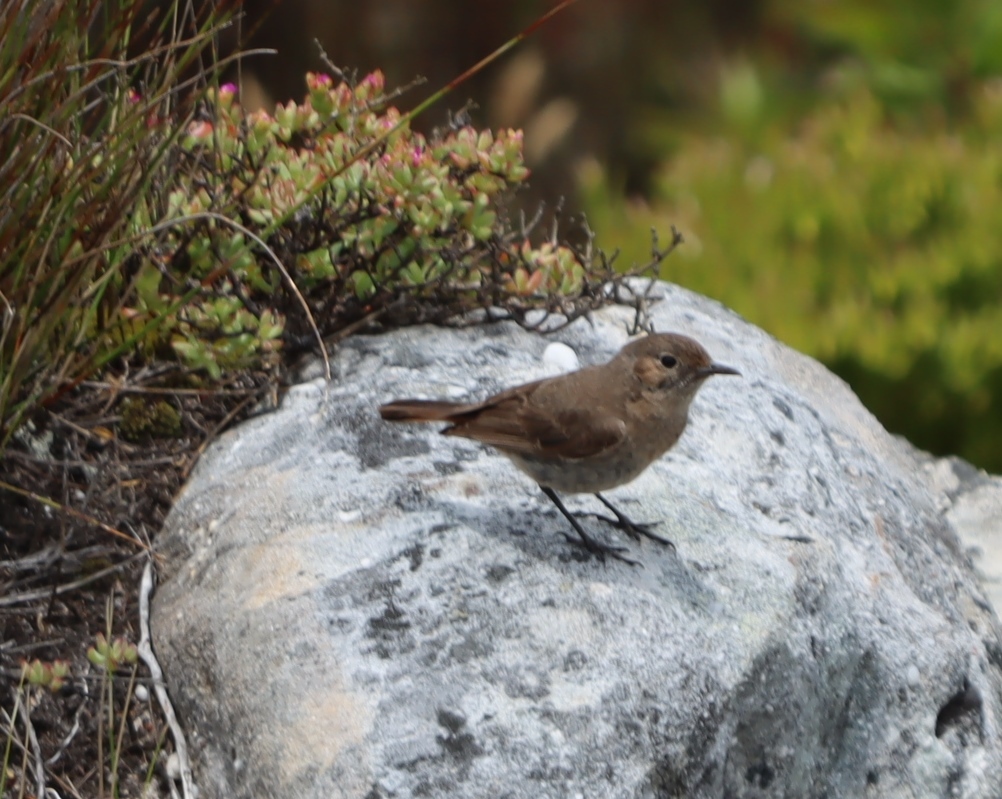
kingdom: Animalia
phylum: Chordata
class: Aves
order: Passeriformes
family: Muscicapidae
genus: Oenanthe
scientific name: Oenanthe familiaris
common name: Familiar chat
